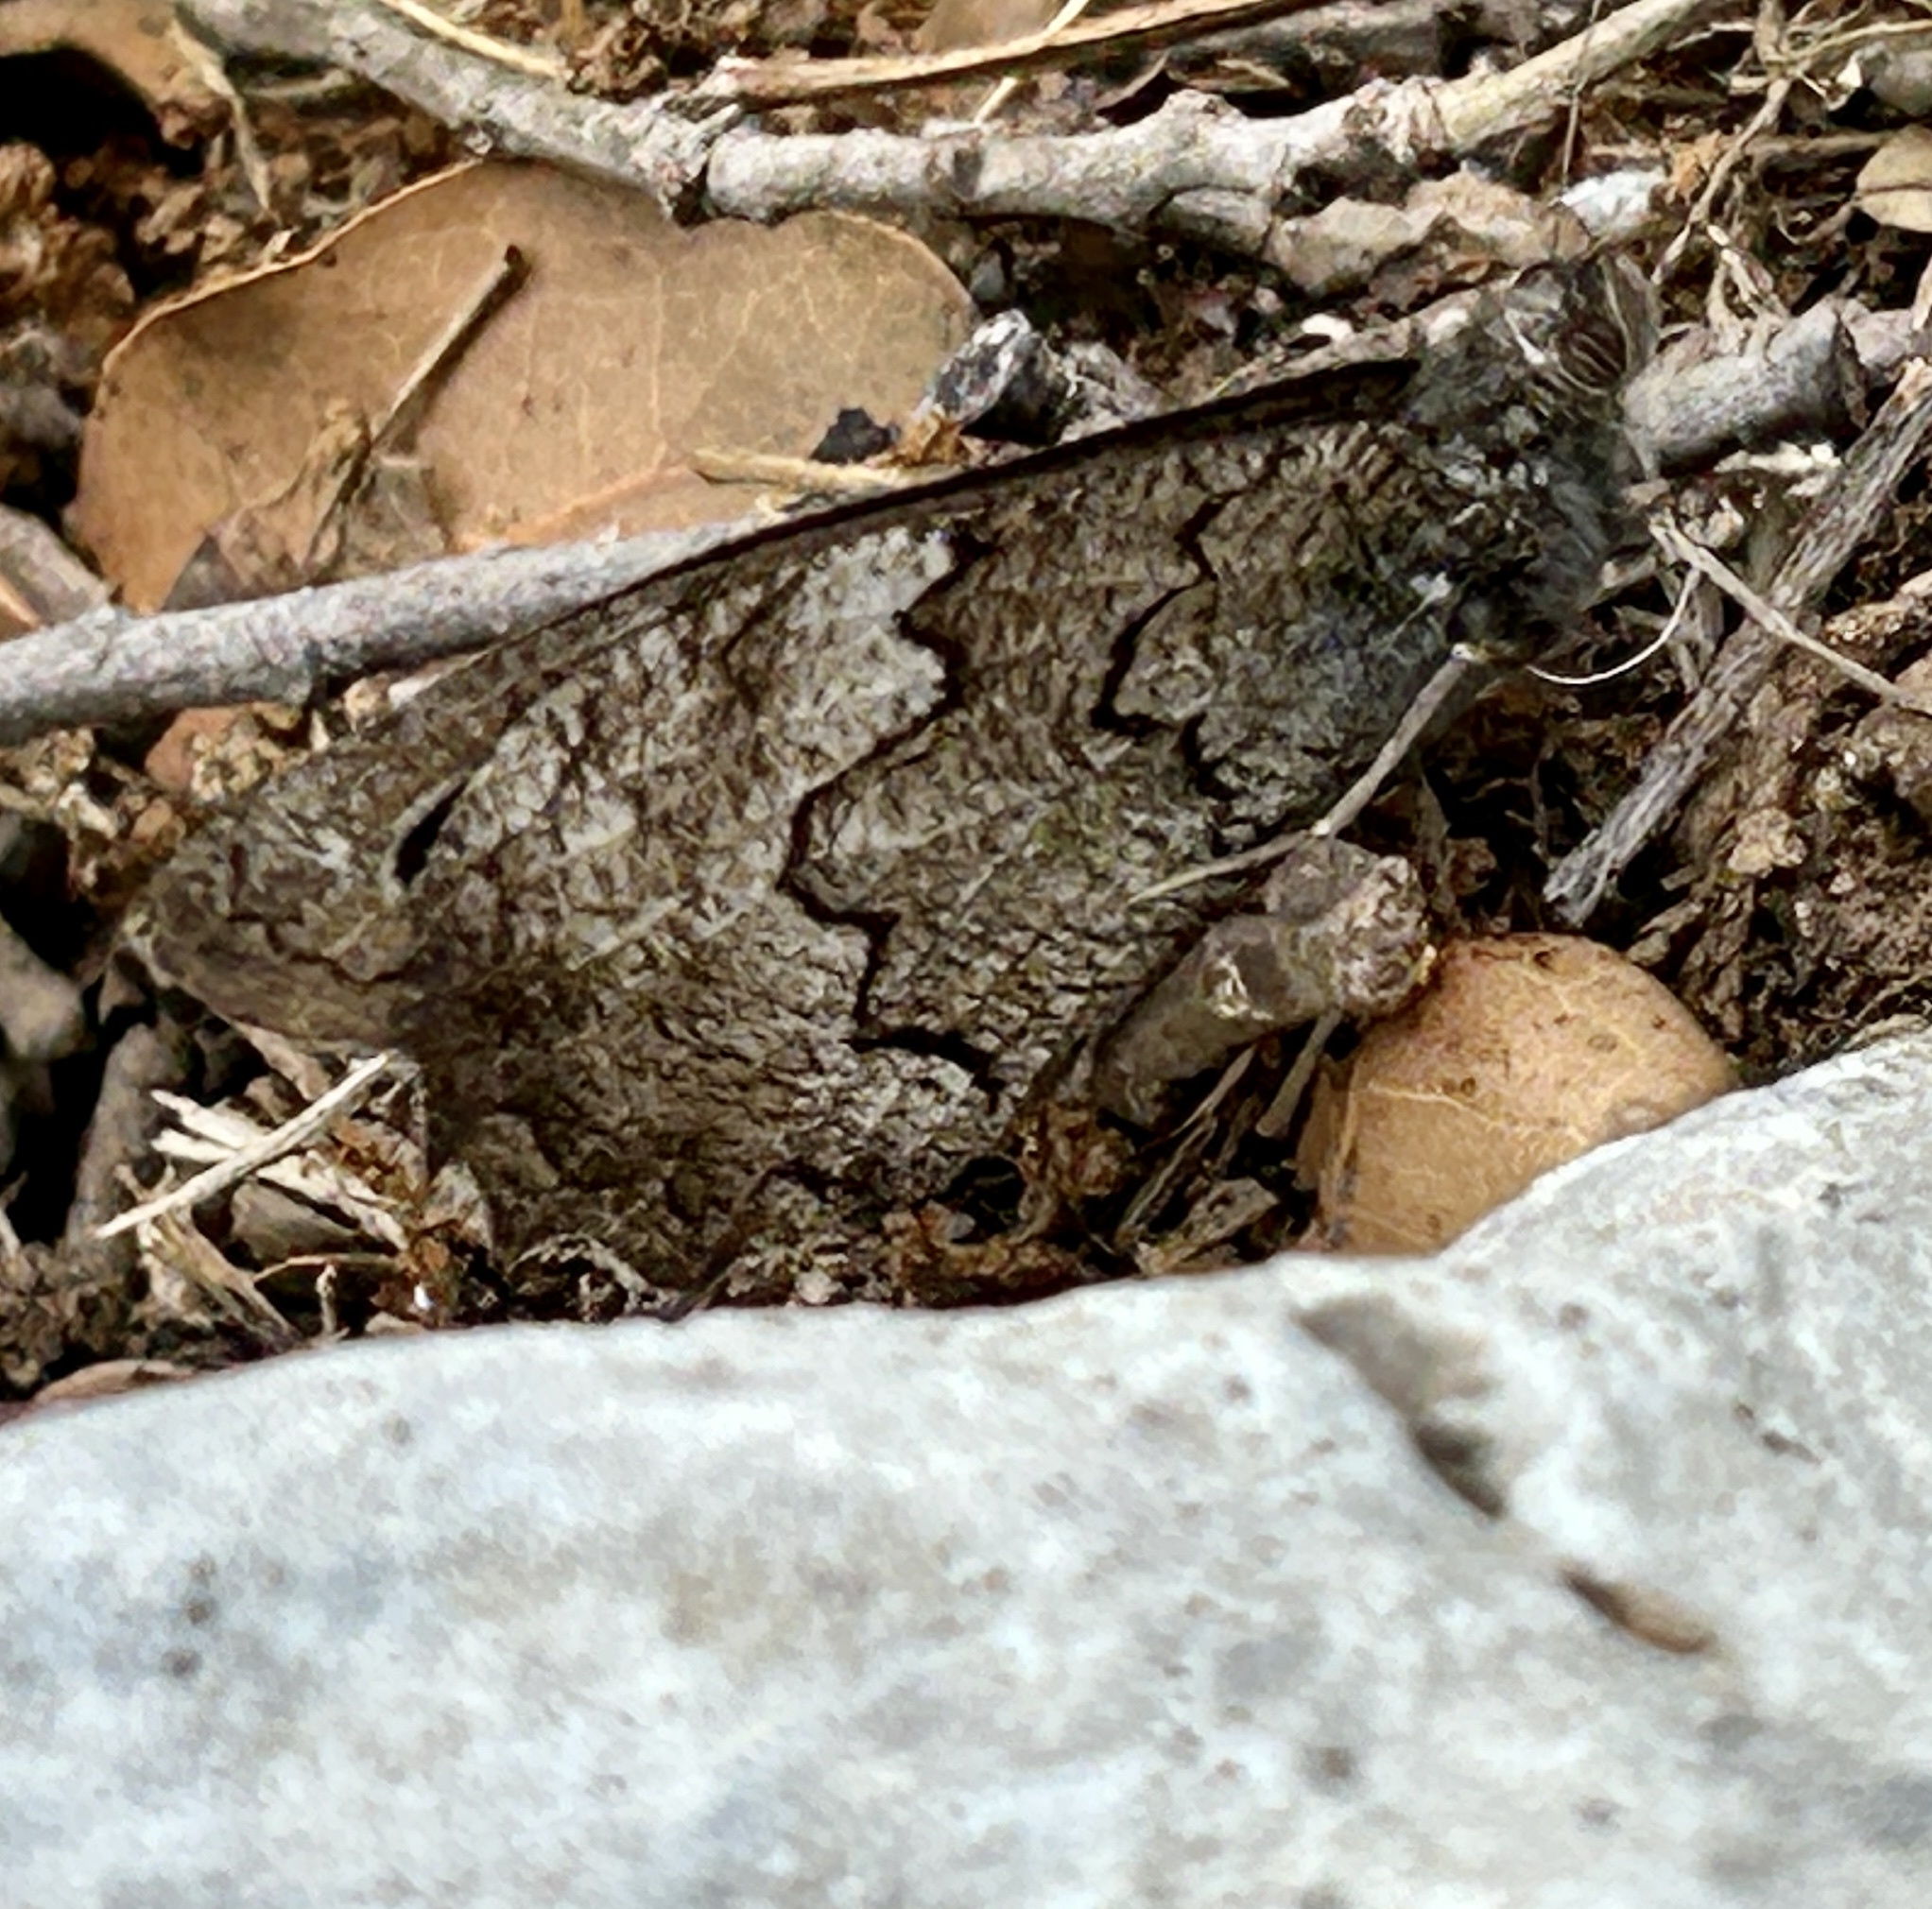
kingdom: Animalia
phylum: Arthropoda
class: Insecta
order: Lepidoptera
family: Nymphalidae
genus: Hipparchia
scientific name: Hipparchia fatua
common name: Freyer's grayling
